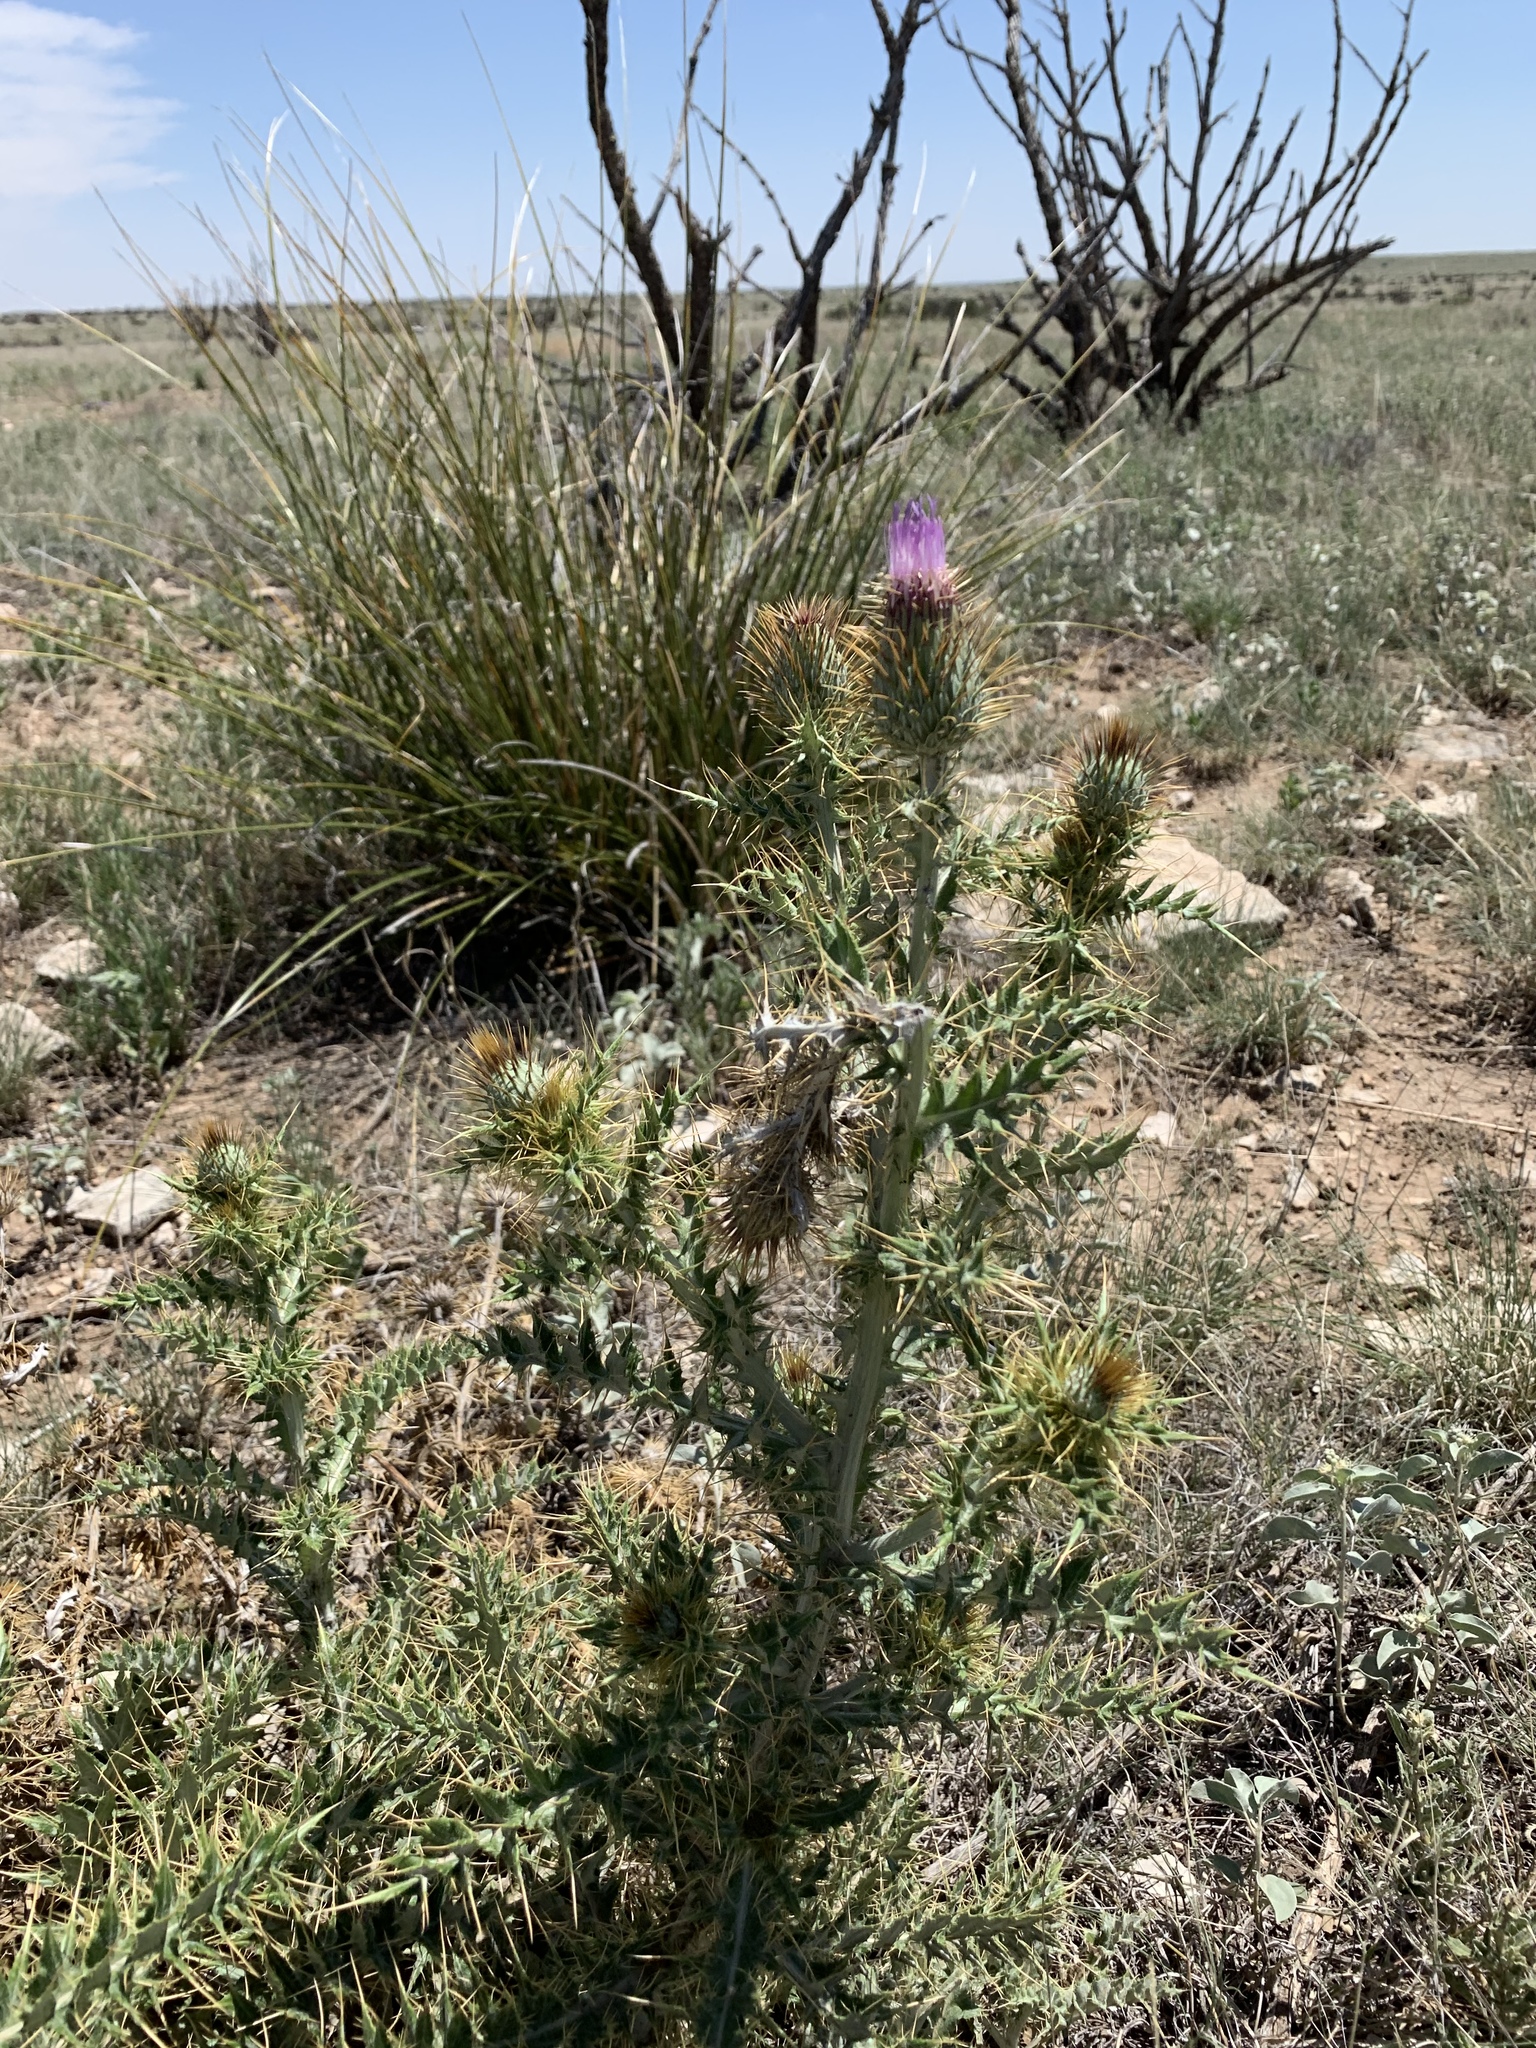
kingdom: Plantae
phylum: Tracheophyta
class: Magnoliopsida
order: Asterales
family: Asteraceae
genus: Cirsium
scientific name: Cirsium ochrocentrum
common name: Yellow-spine thistle
